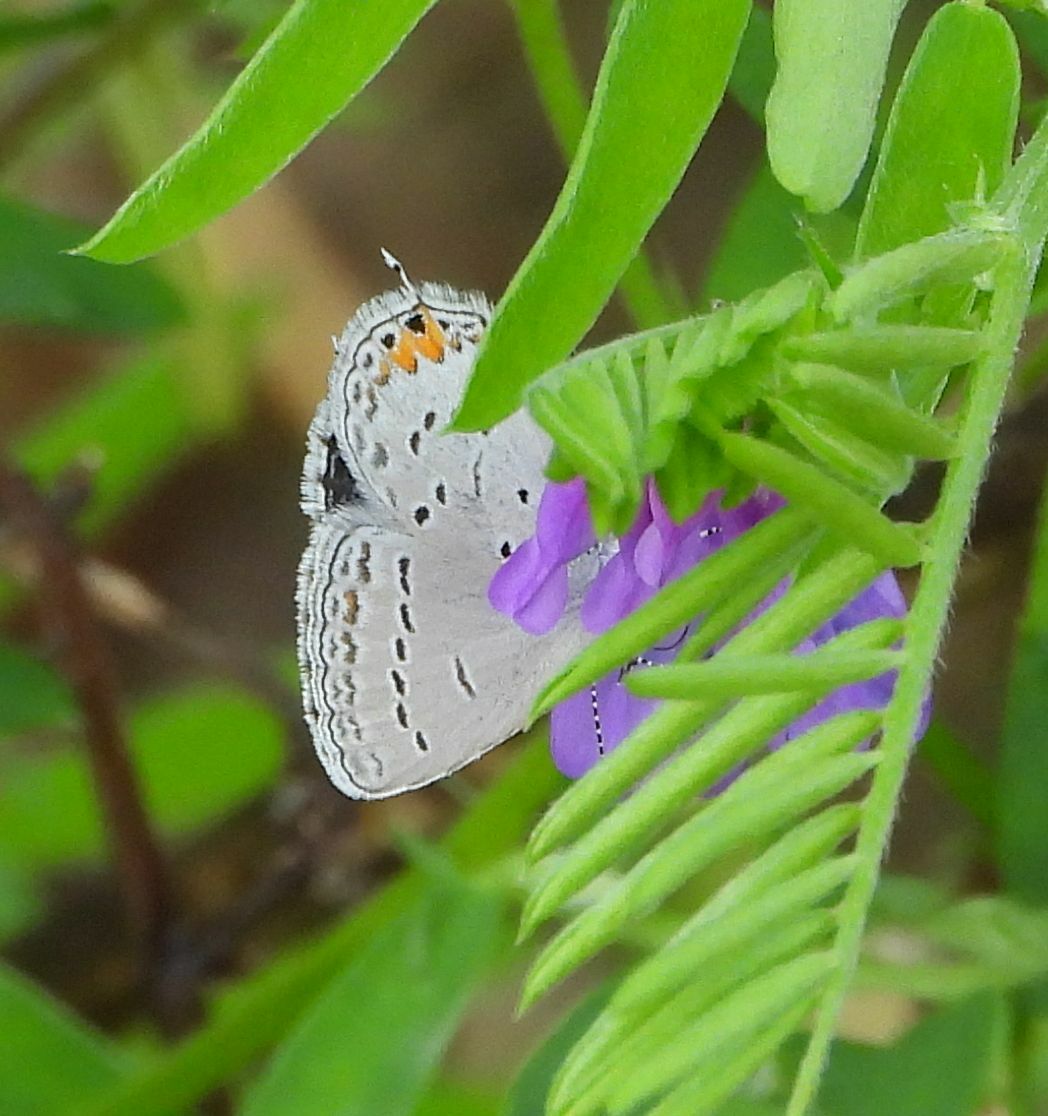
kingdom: Animalia
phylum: Arthropoda
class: Insecta
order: Lepidoptera
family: Lycaenidae
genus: Elkalyce
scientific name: Elkalyce comyntas
